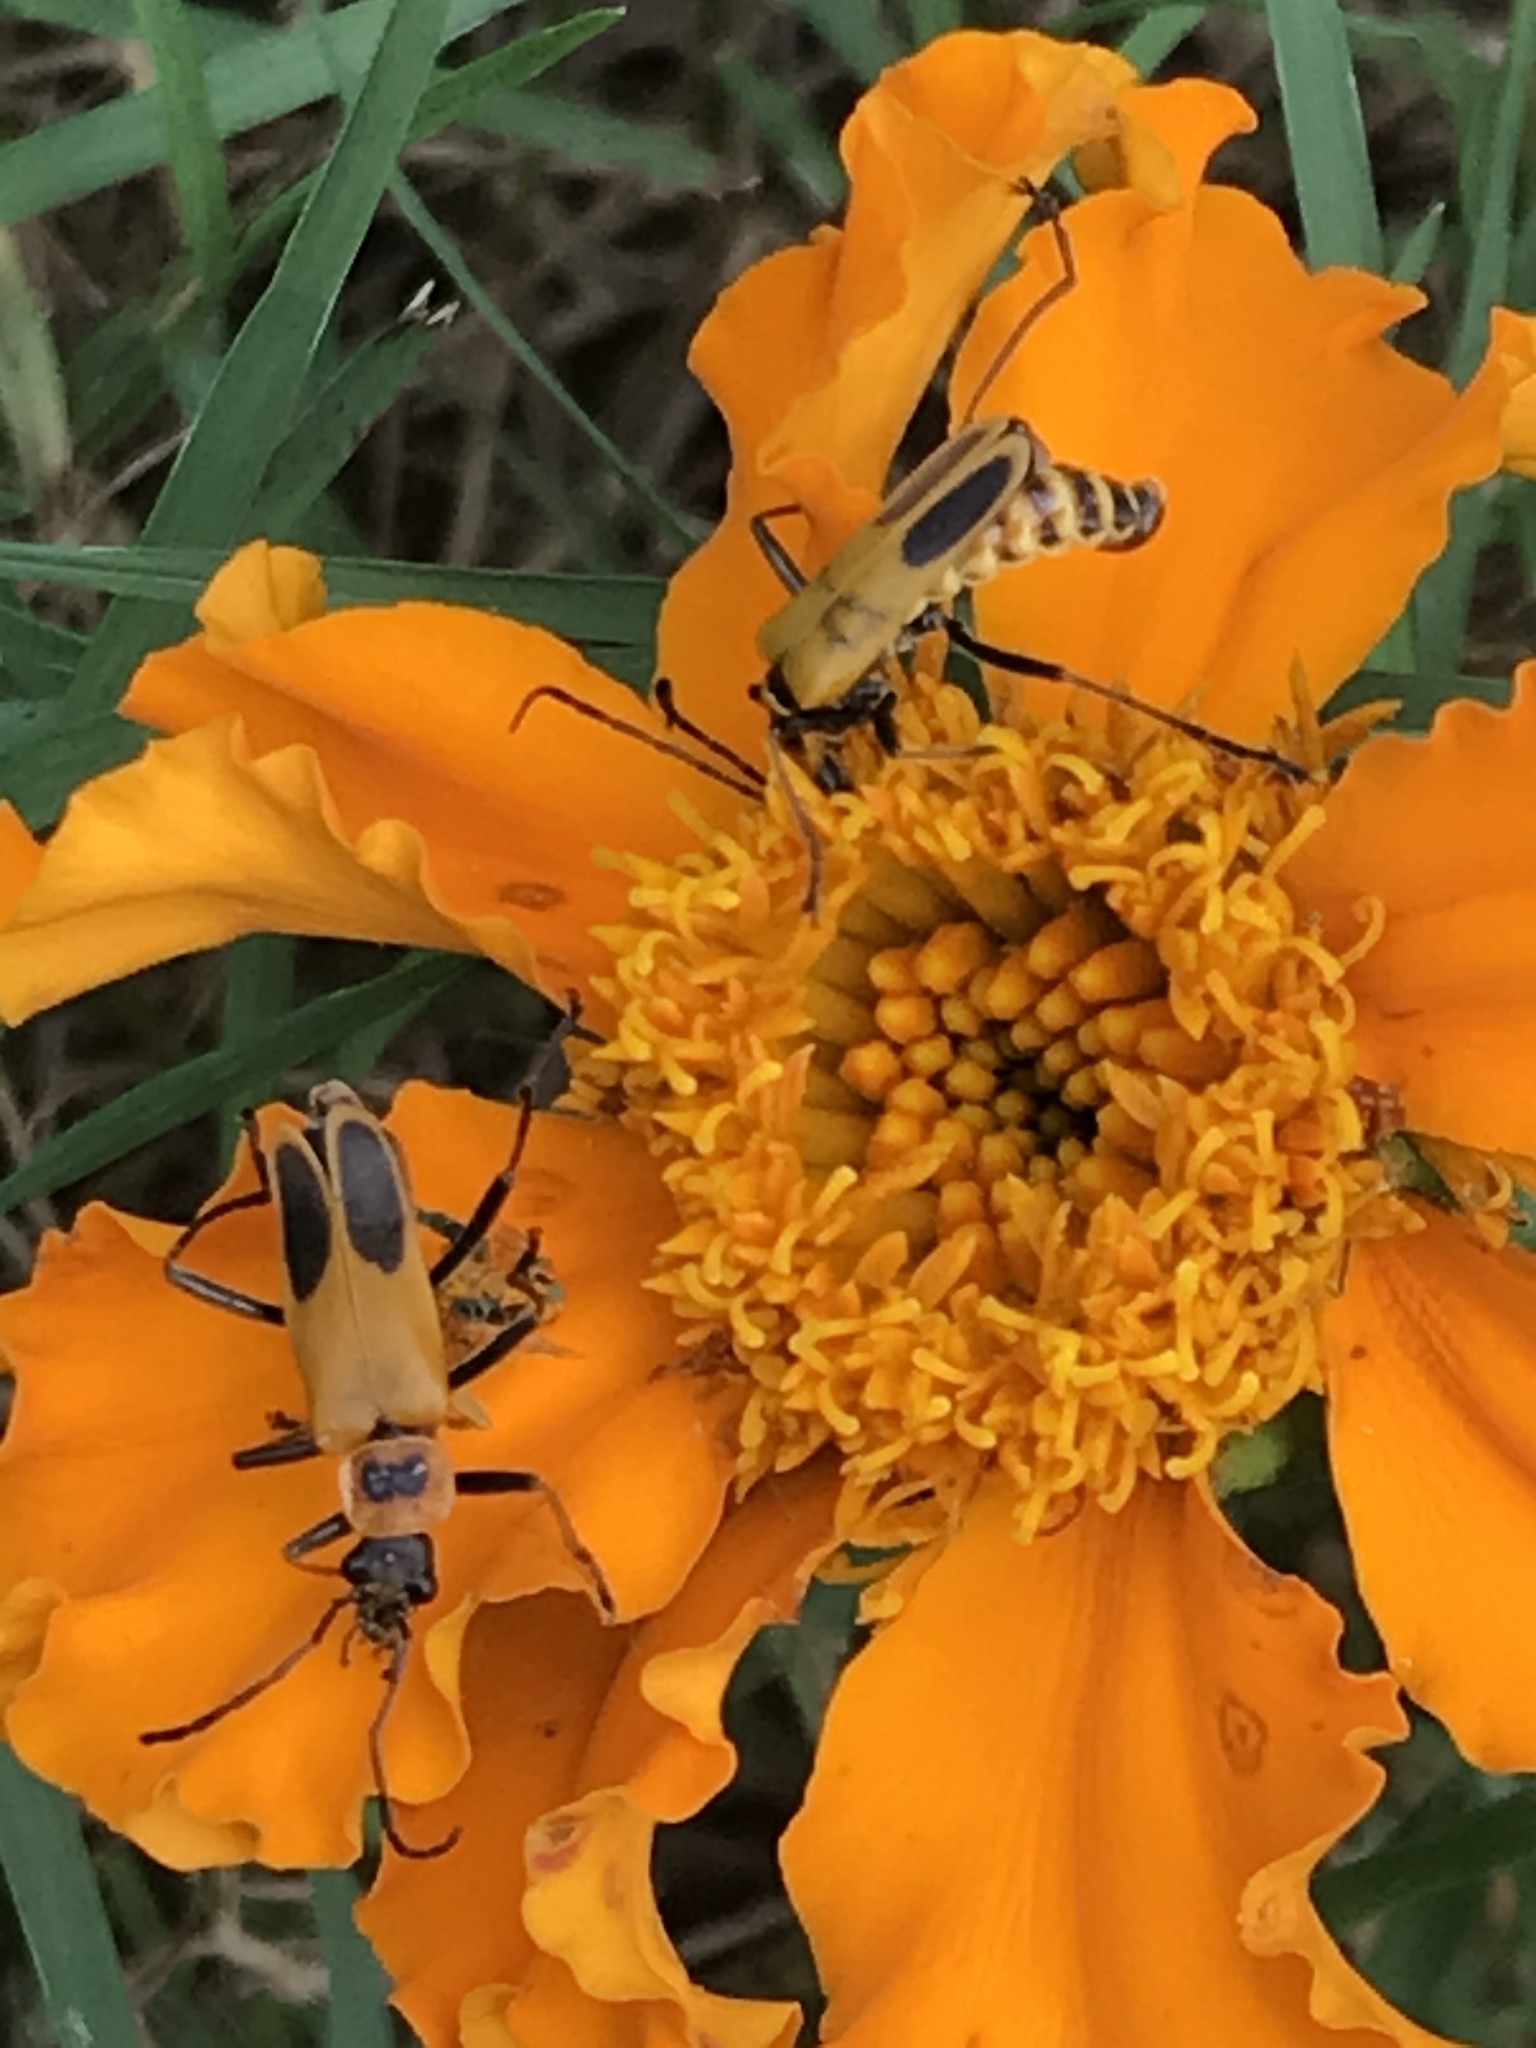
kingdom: Animalia
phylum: Arthropoda
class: Insecta
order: Coleoptera
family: Cantharidae
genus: Chauliognathus
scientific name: Chauliognathus pensylvanicus
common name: Goldenrod soldier beetle
